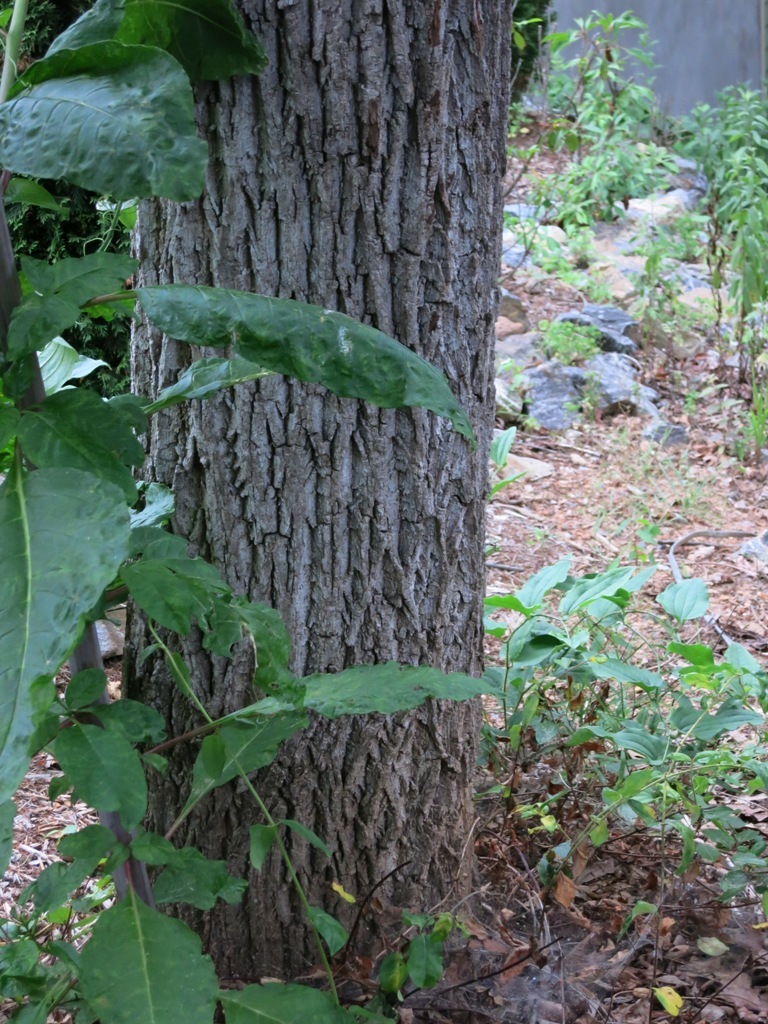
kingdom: Plantae
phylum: Tracheophyta
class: Magnoliopsida
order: Fagales
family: Juglandaceae
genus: Juglans
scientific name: Juglans nigra
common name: Black walnut
